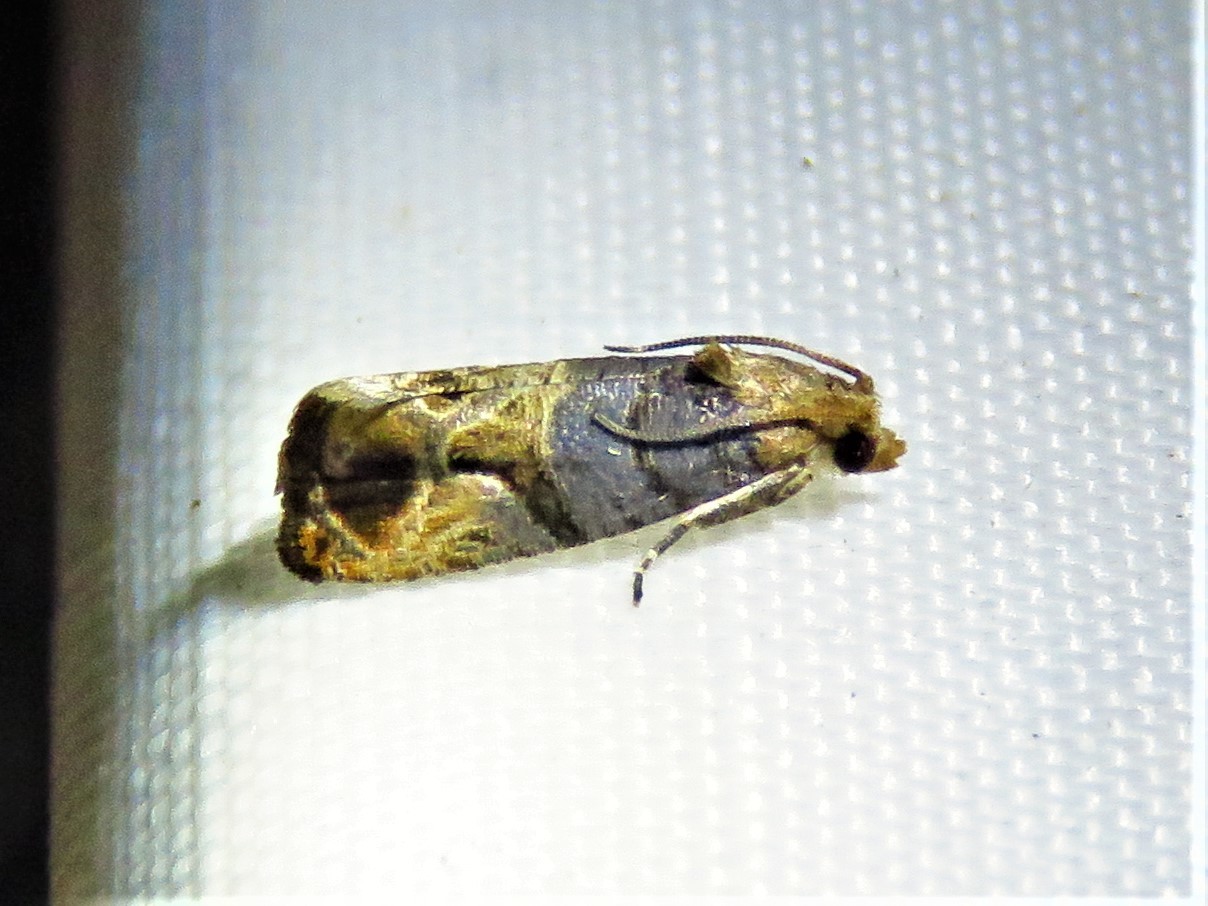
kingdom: Animalia
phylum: Arthropoda
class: Insecta
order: Lepidoptera
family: Tortricidae
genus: Paralobesia
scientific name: Paralobesia viteana
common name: Grape berry moth
